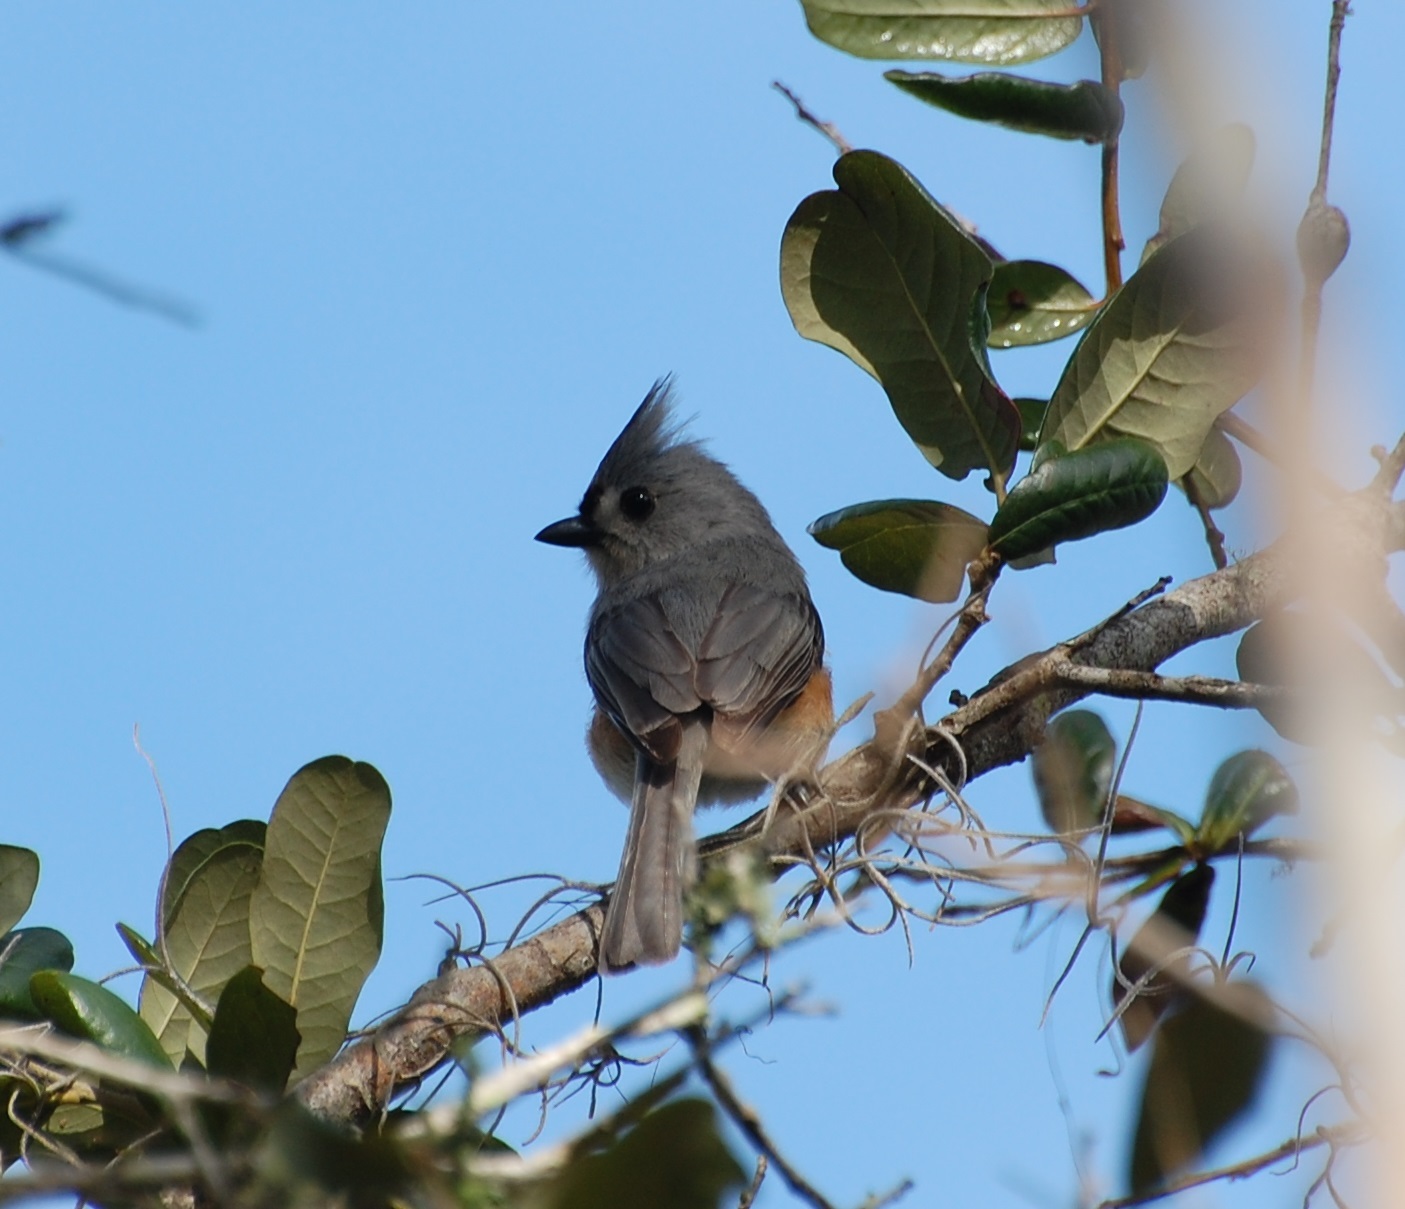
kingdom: Animalia
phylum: Chordata
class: Aves
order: Passeriformes
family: Paridae
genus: Baeolophus
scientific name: Baeolophus bicolor
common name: Tufted titmouse
